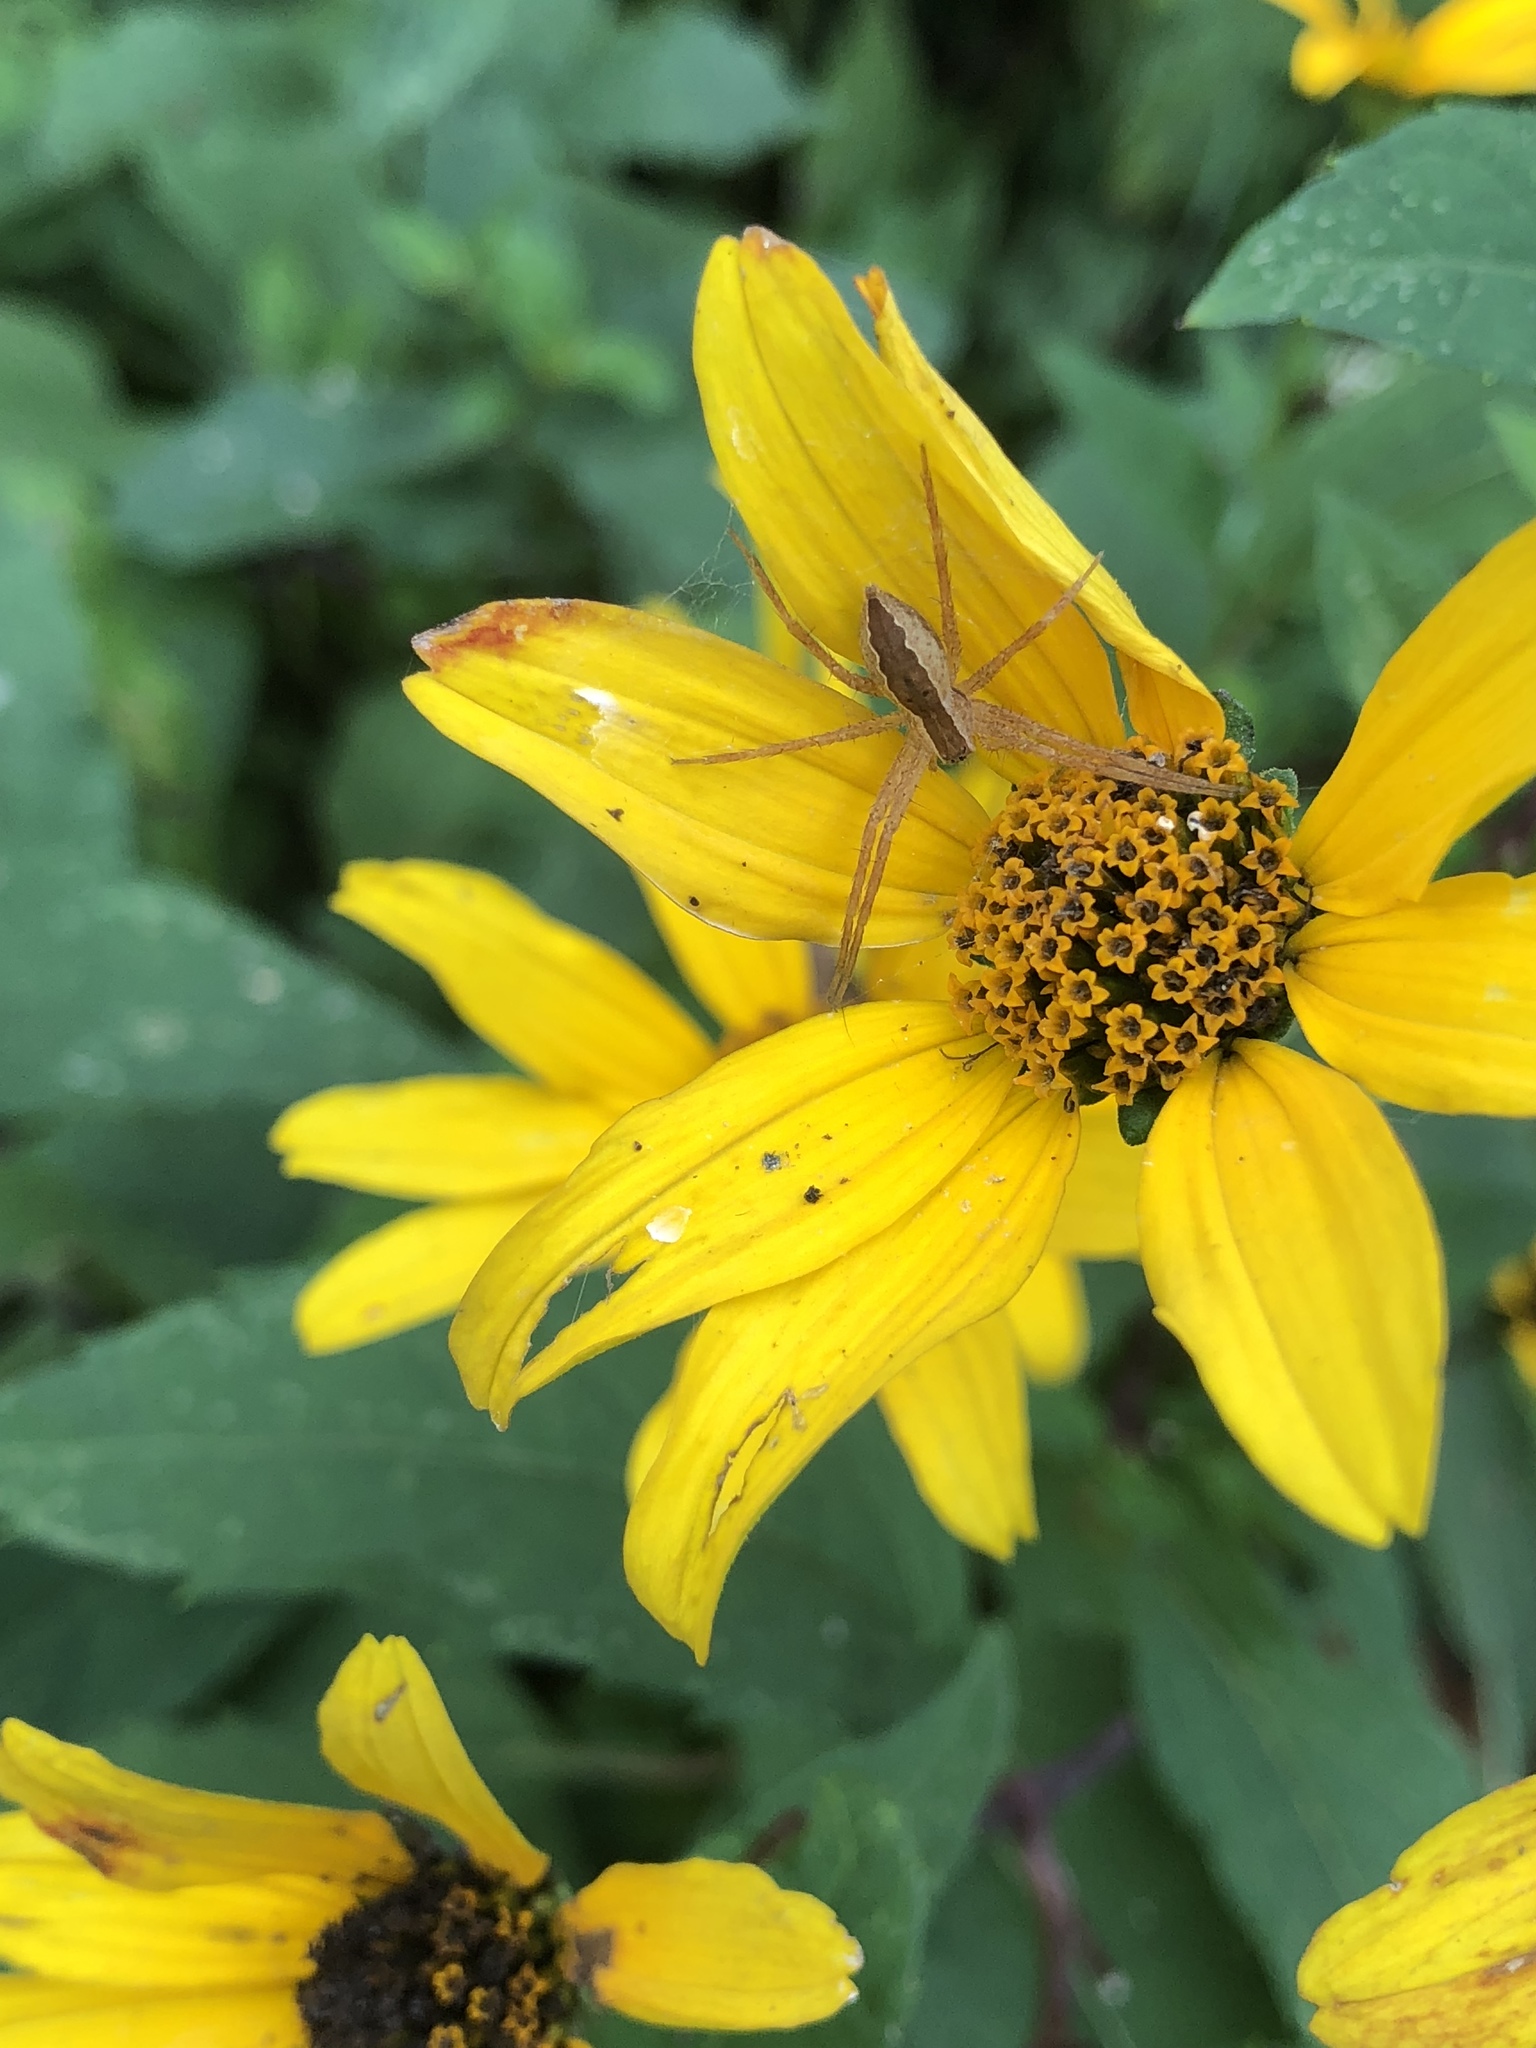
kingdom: Animalia
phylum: Arthropoda
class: Arachnida
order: Araneae
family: Pisauridae
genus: Pisaurina
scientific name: Pisaurina mira
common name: American nursery web spider
